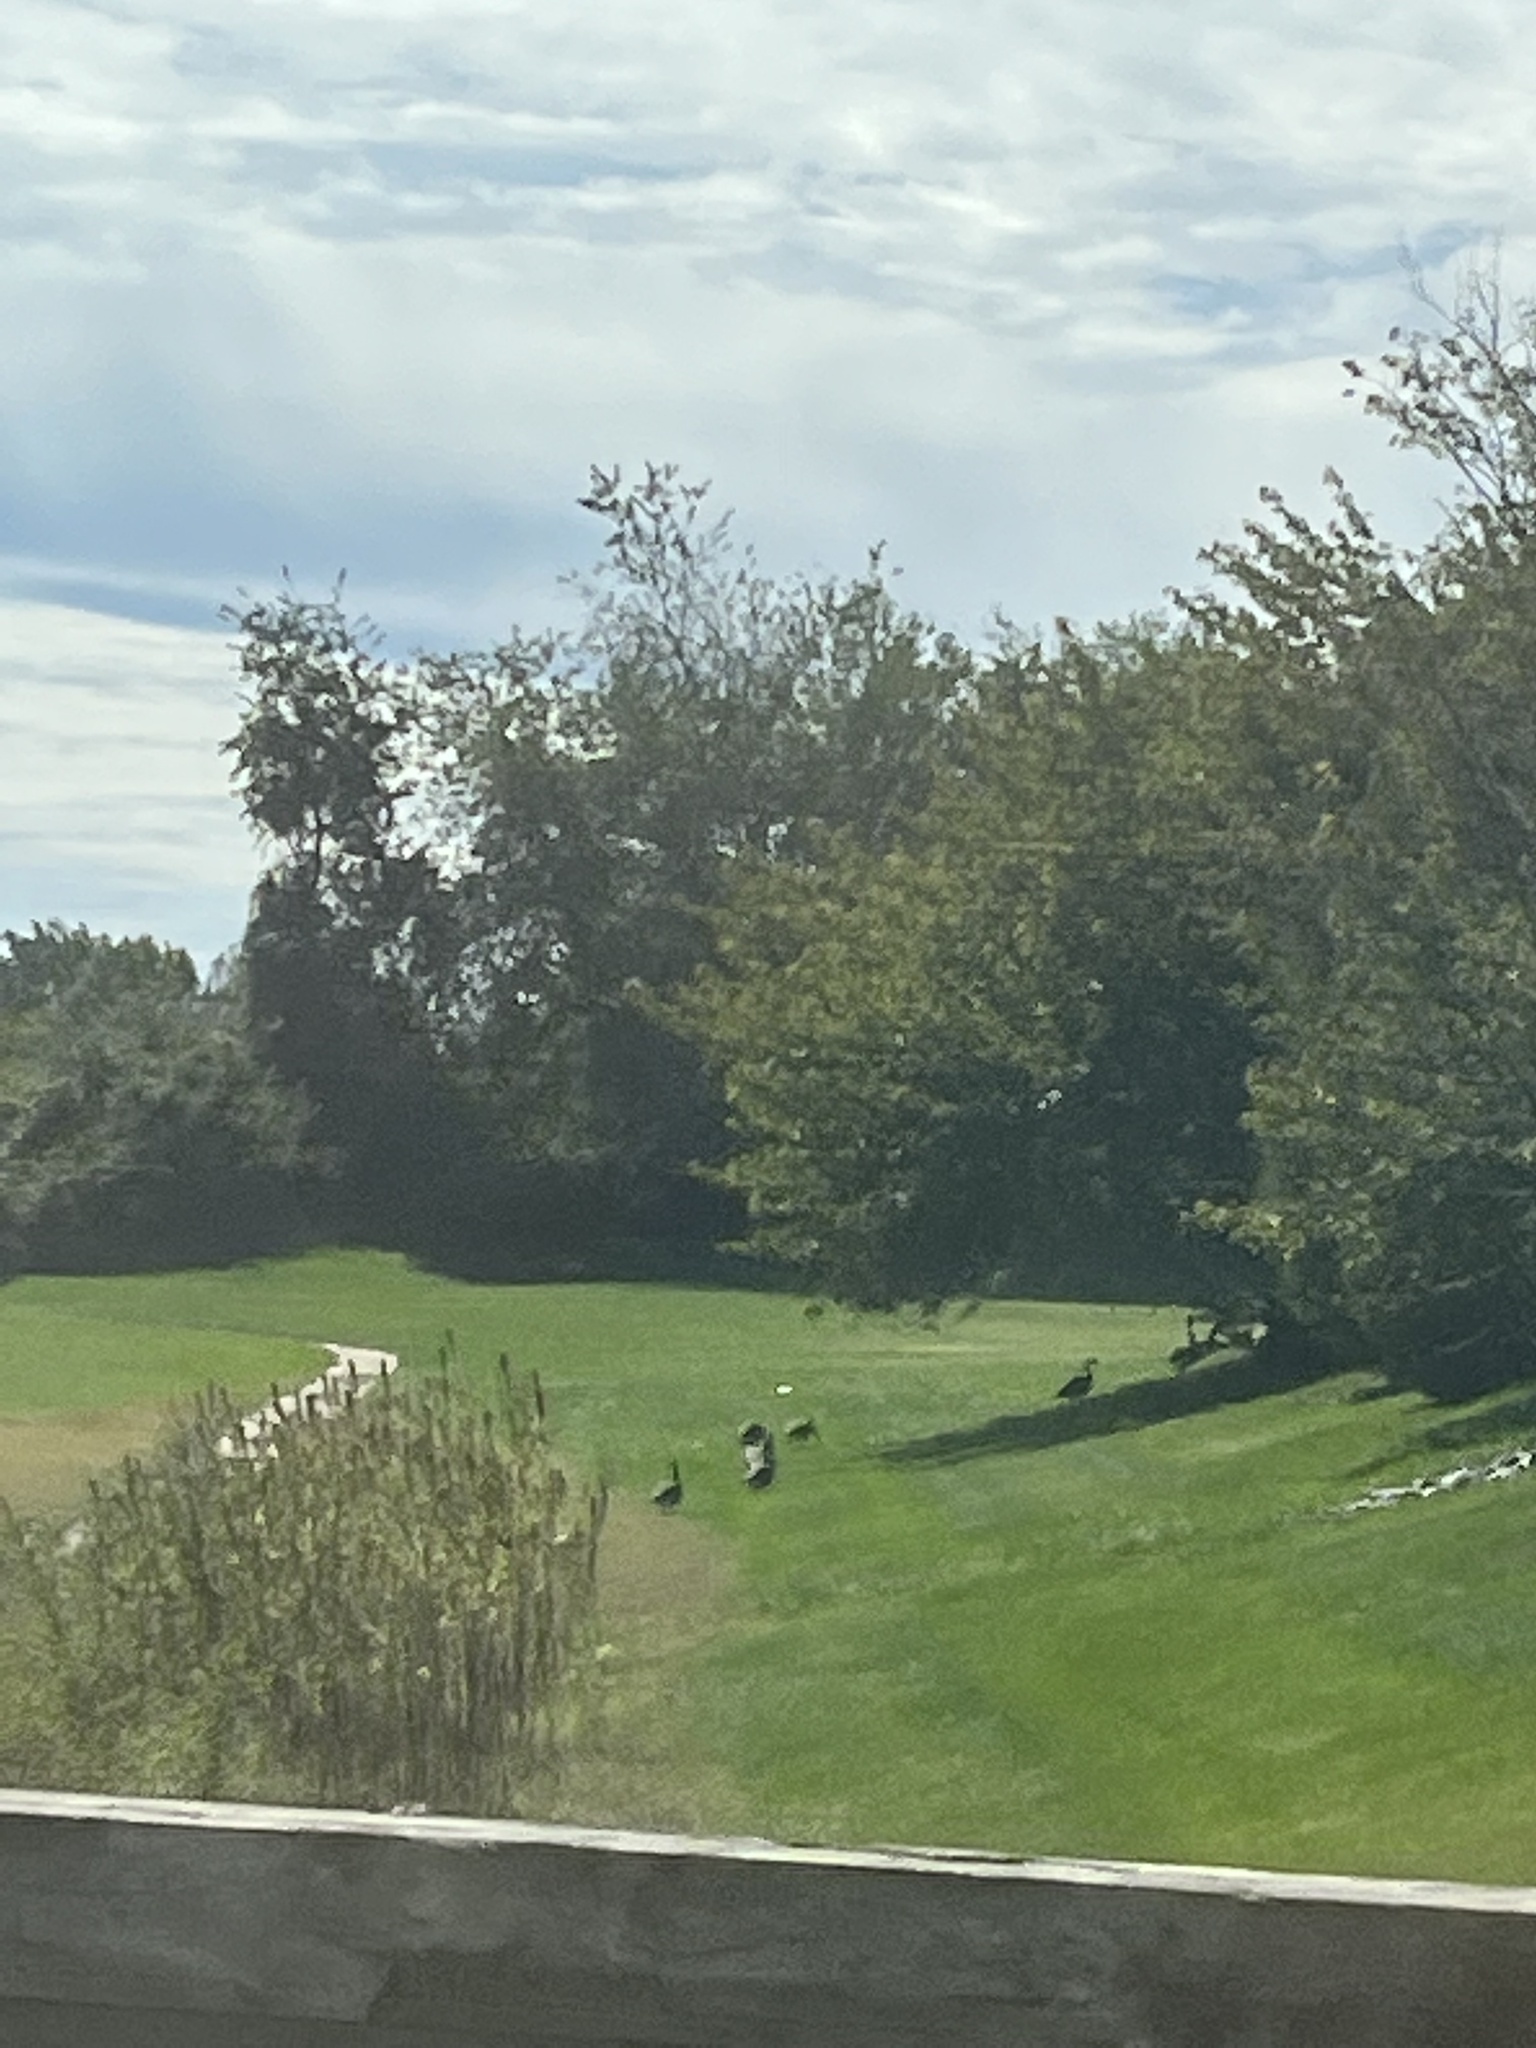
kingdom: Animalia
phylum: Chordata
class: Aves
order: Anseriformes
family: Anatidae
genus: Branta
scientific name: Branta canadensis
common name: Canada goose
